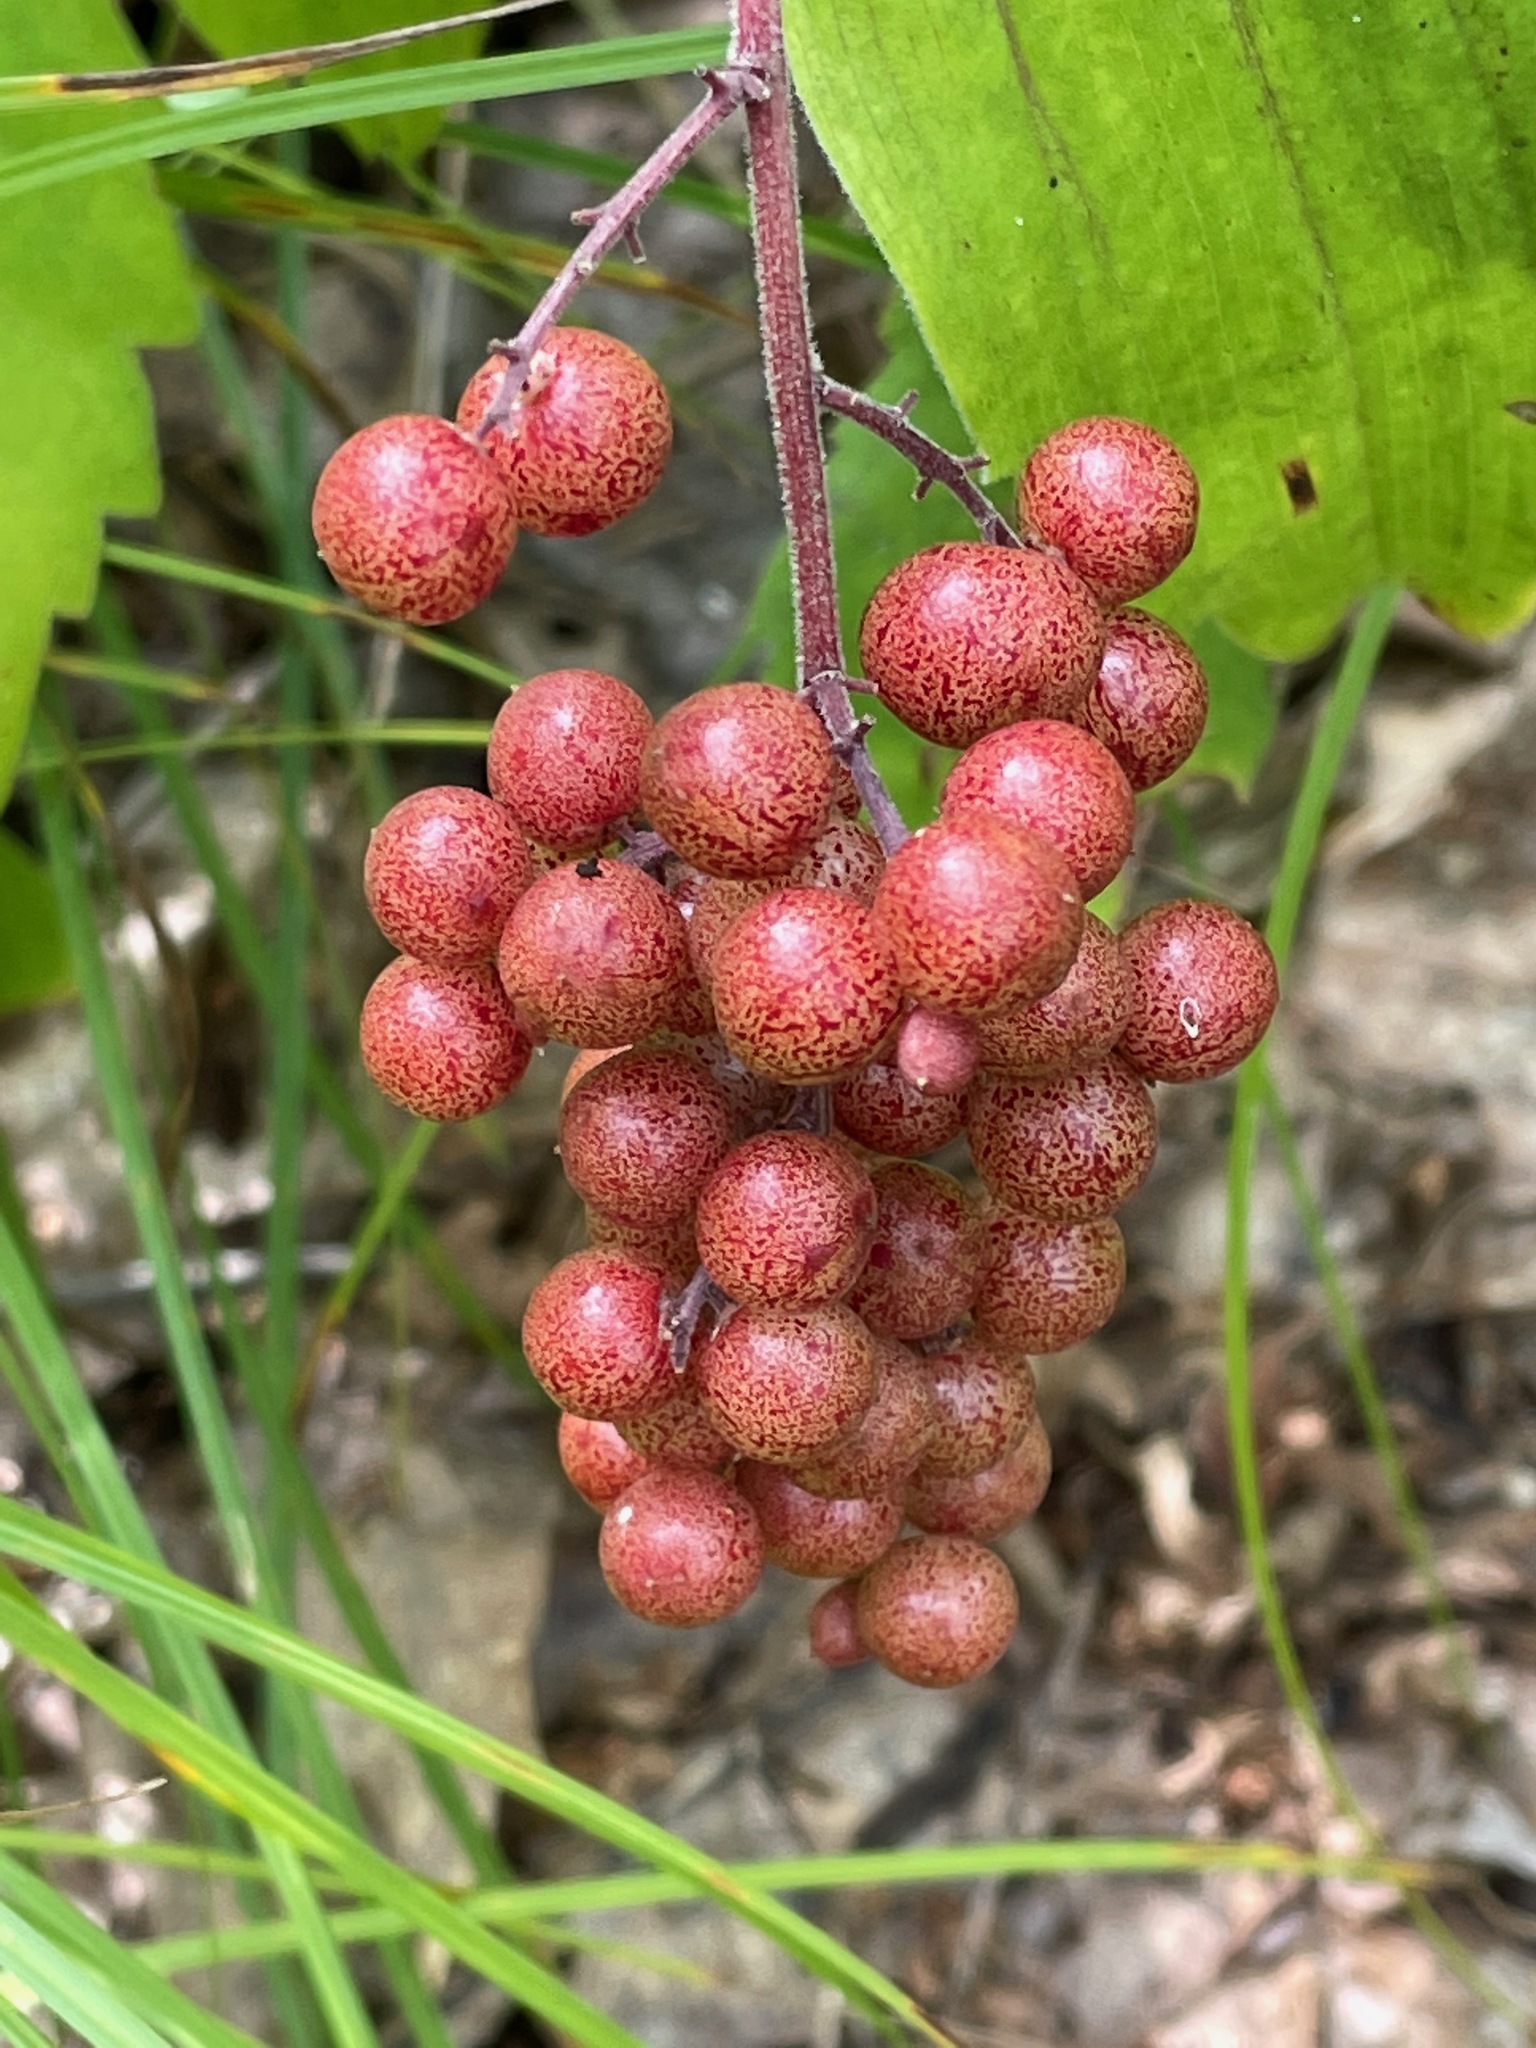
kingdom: Plantae
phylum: Tracheophyta
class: Liliopsida
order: Asparagales
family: Asparagaceae
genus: Maianthemum
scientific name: Maianthemum racemosum
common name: False spikenard
